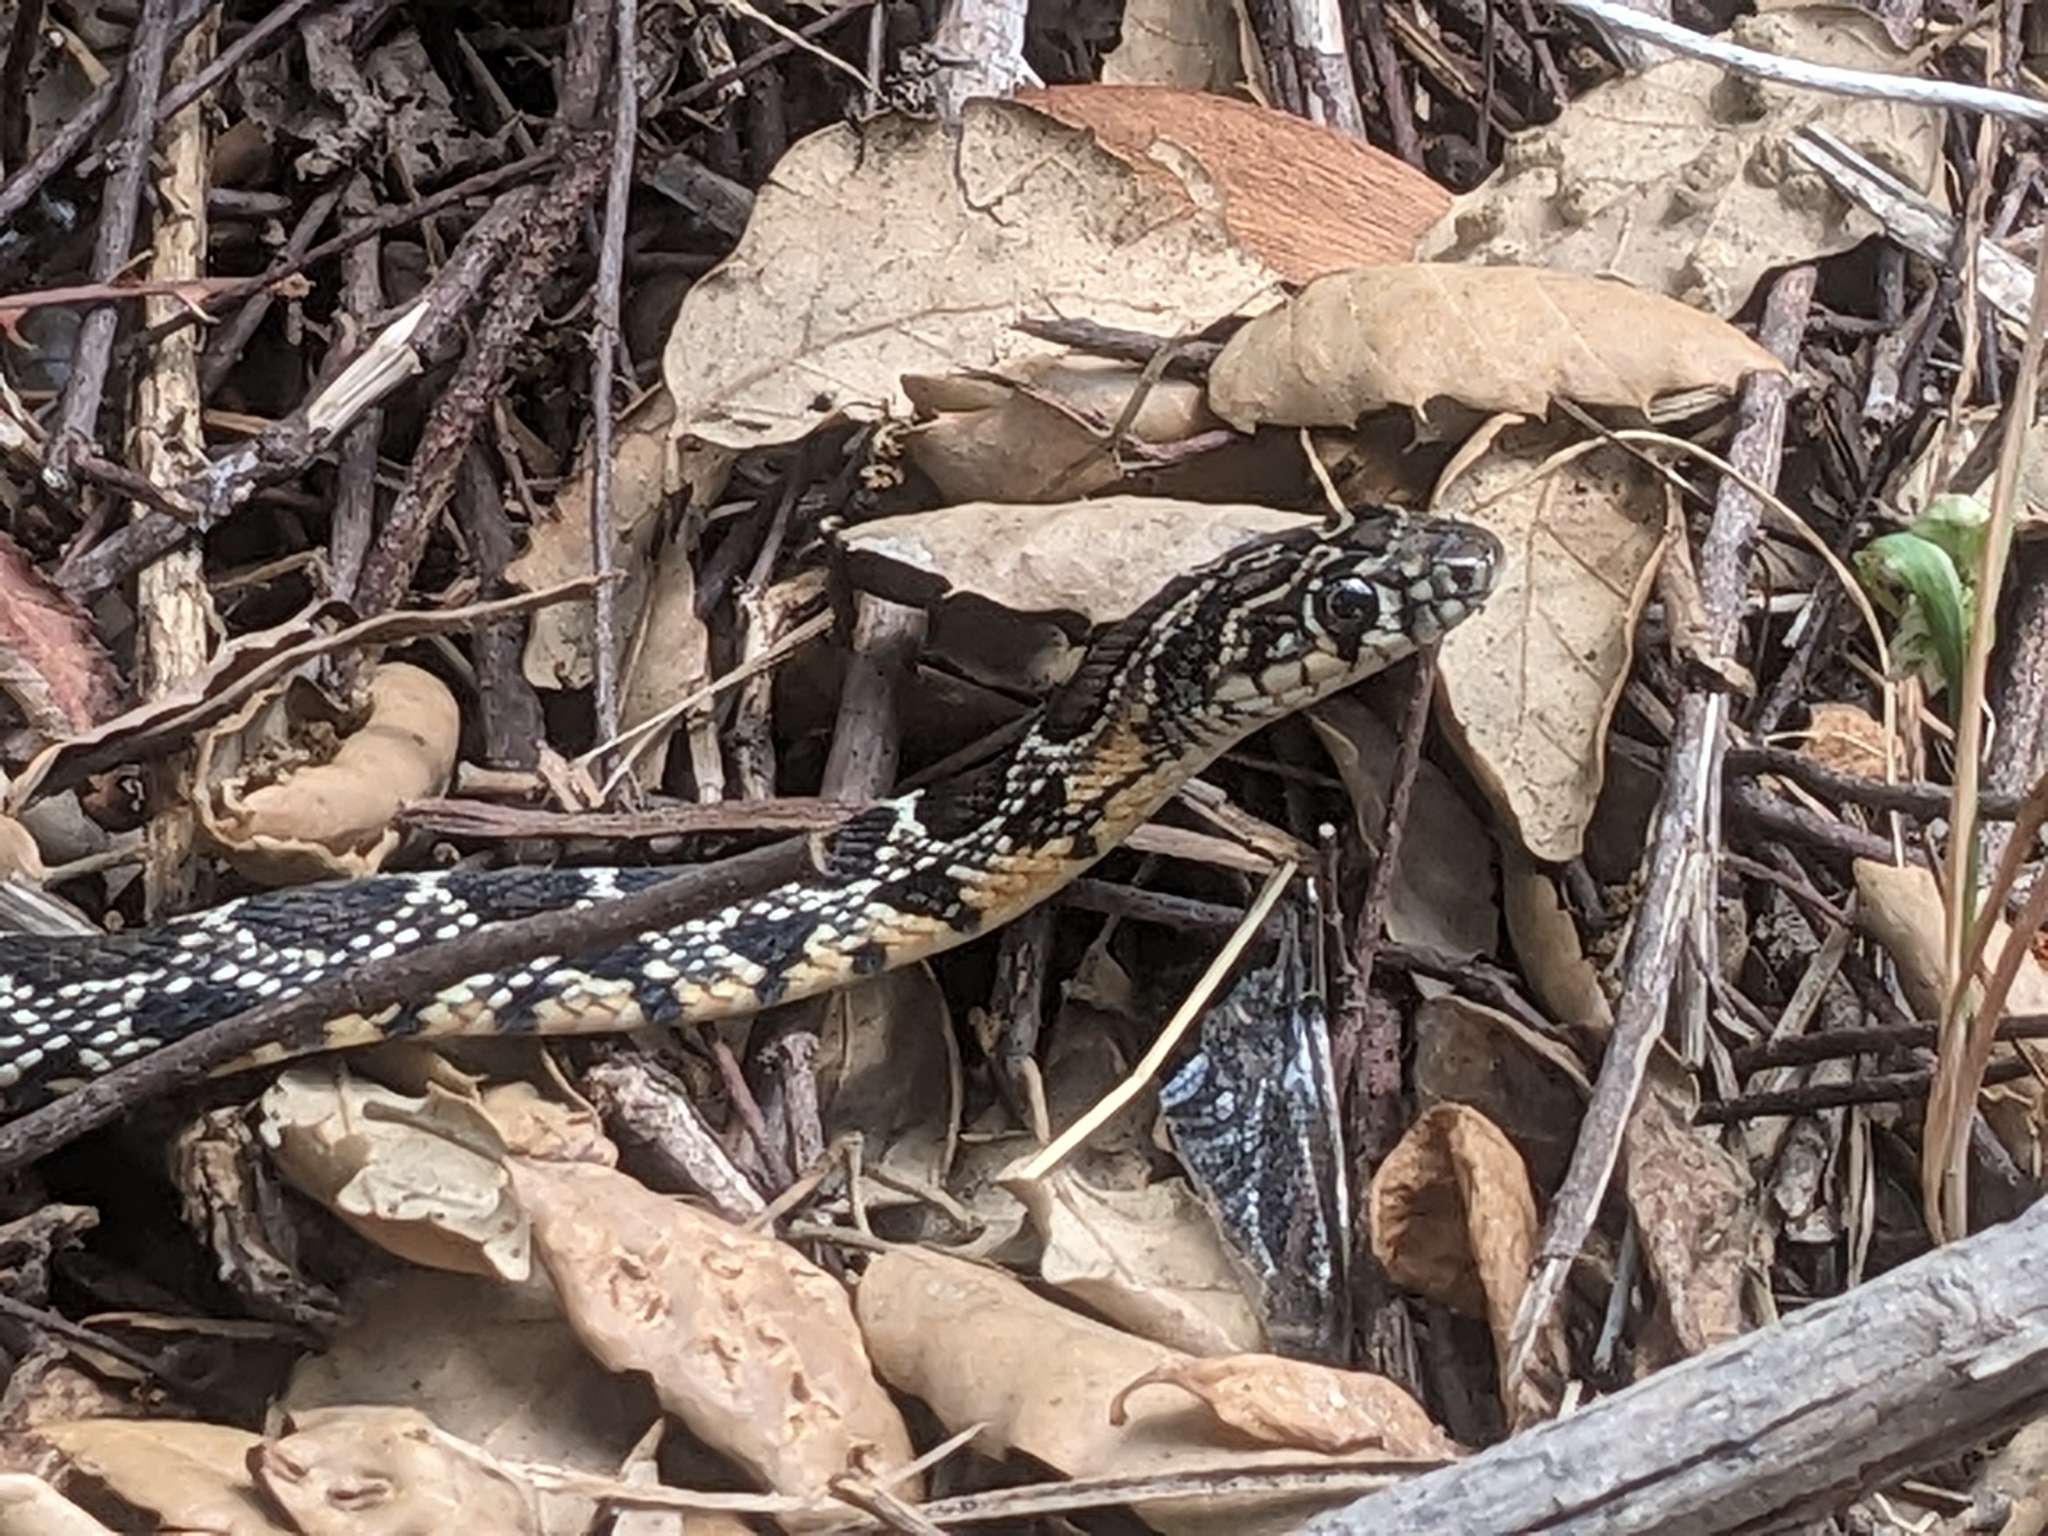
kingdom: Animalia
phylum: Chordata
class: Squamata
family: Colubridae
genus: Hemorrhois
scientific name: Hemorrhois hippocrepis
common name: Horseshoe whip snake
